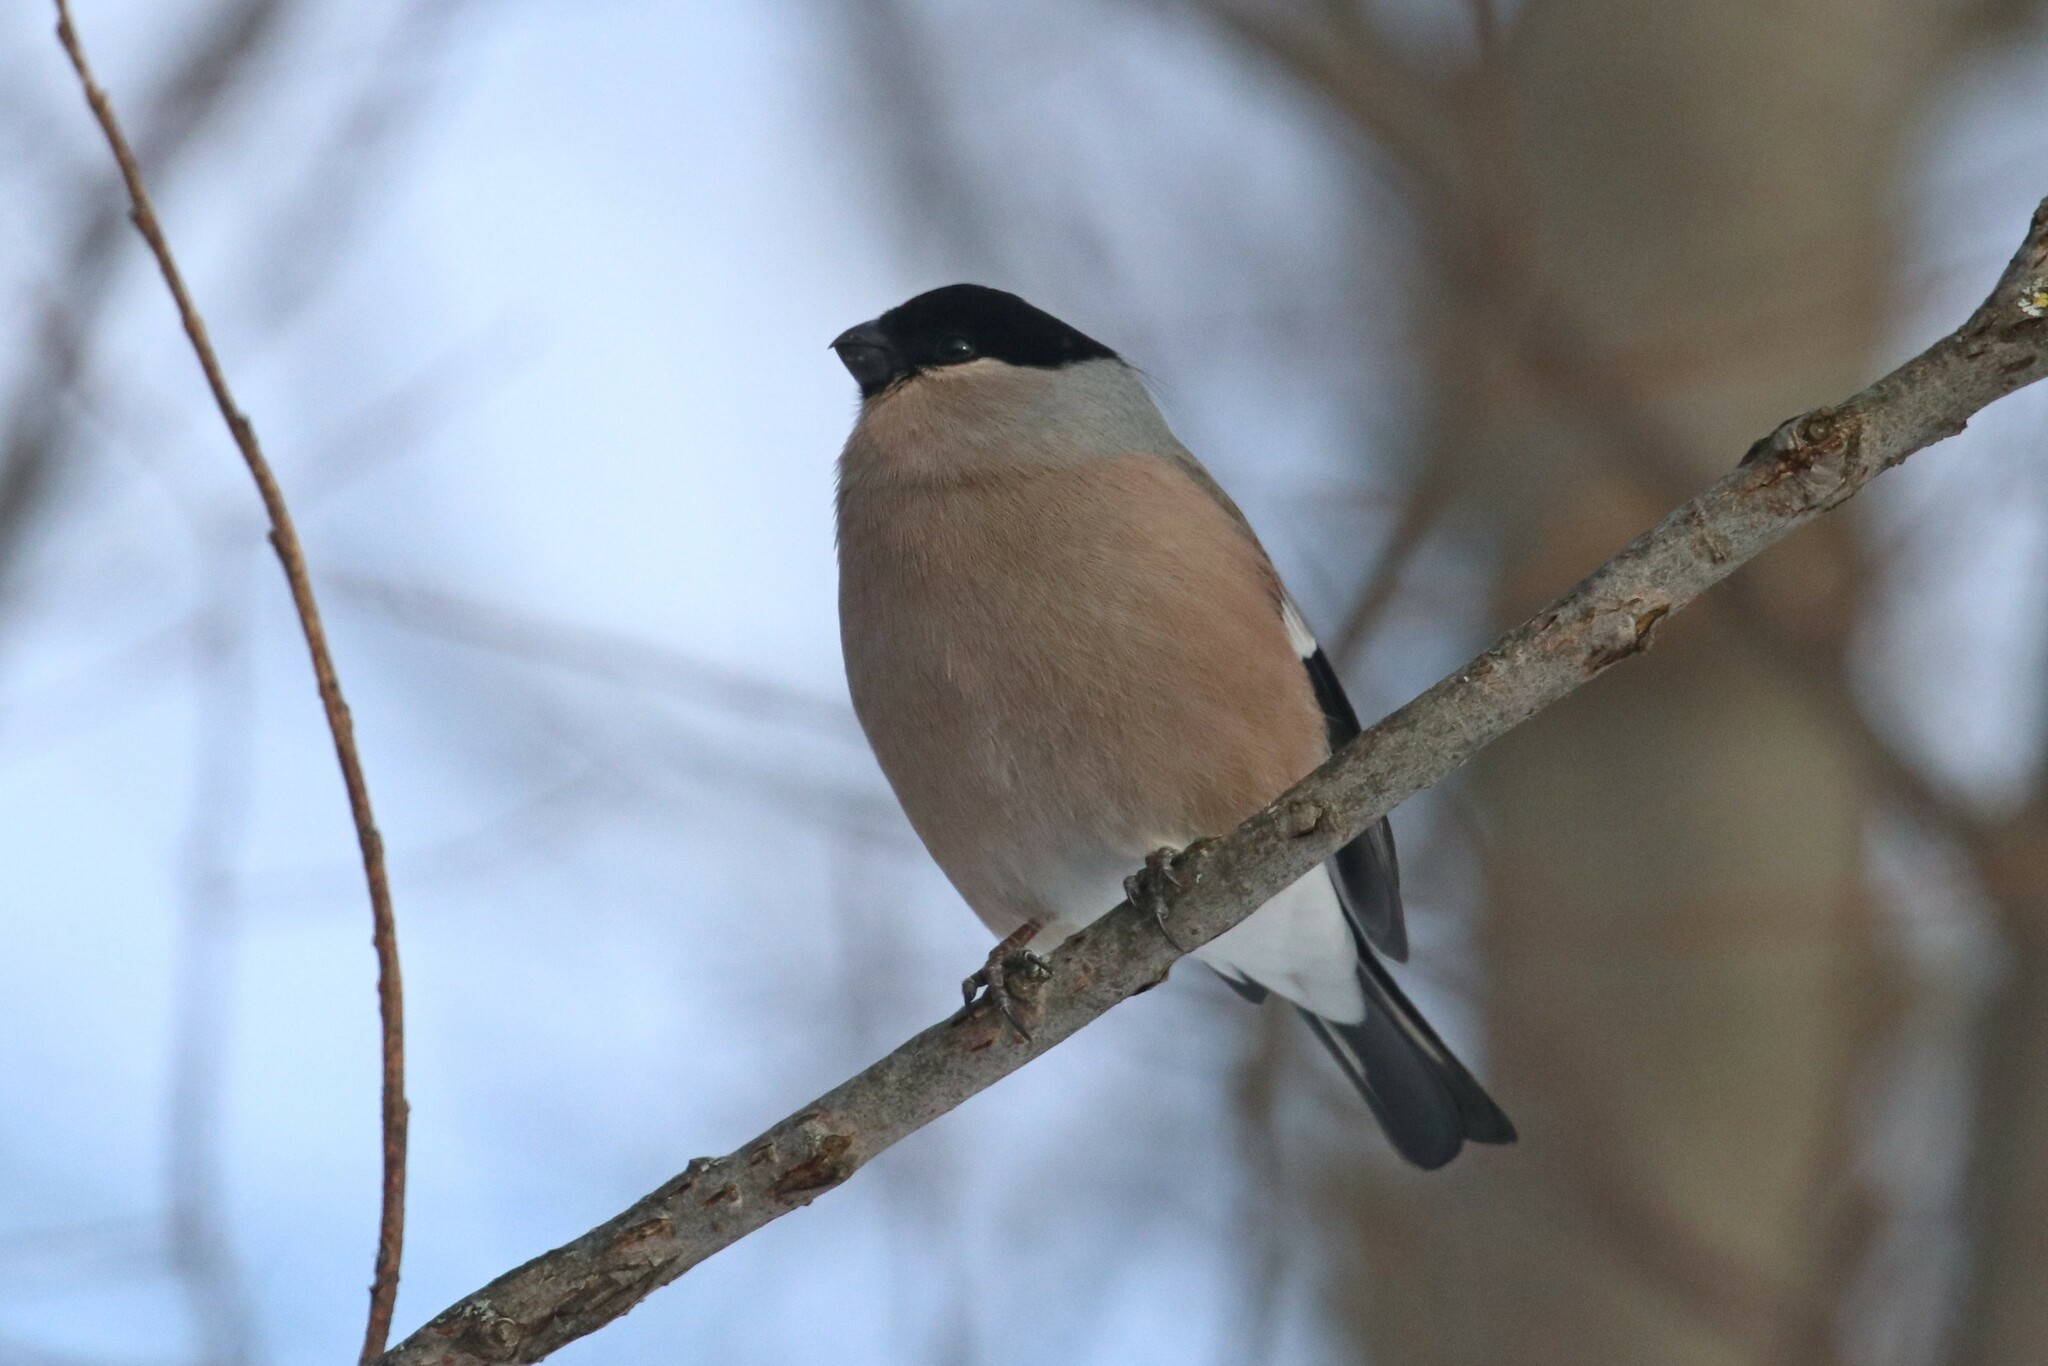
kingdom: Animalia
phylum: Chordata
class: Aves
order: Passeriformes
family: Fringillidae
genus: Pyrrhula
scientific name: Pyrrhula pyrrhula
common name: Eurasian bullfinch
